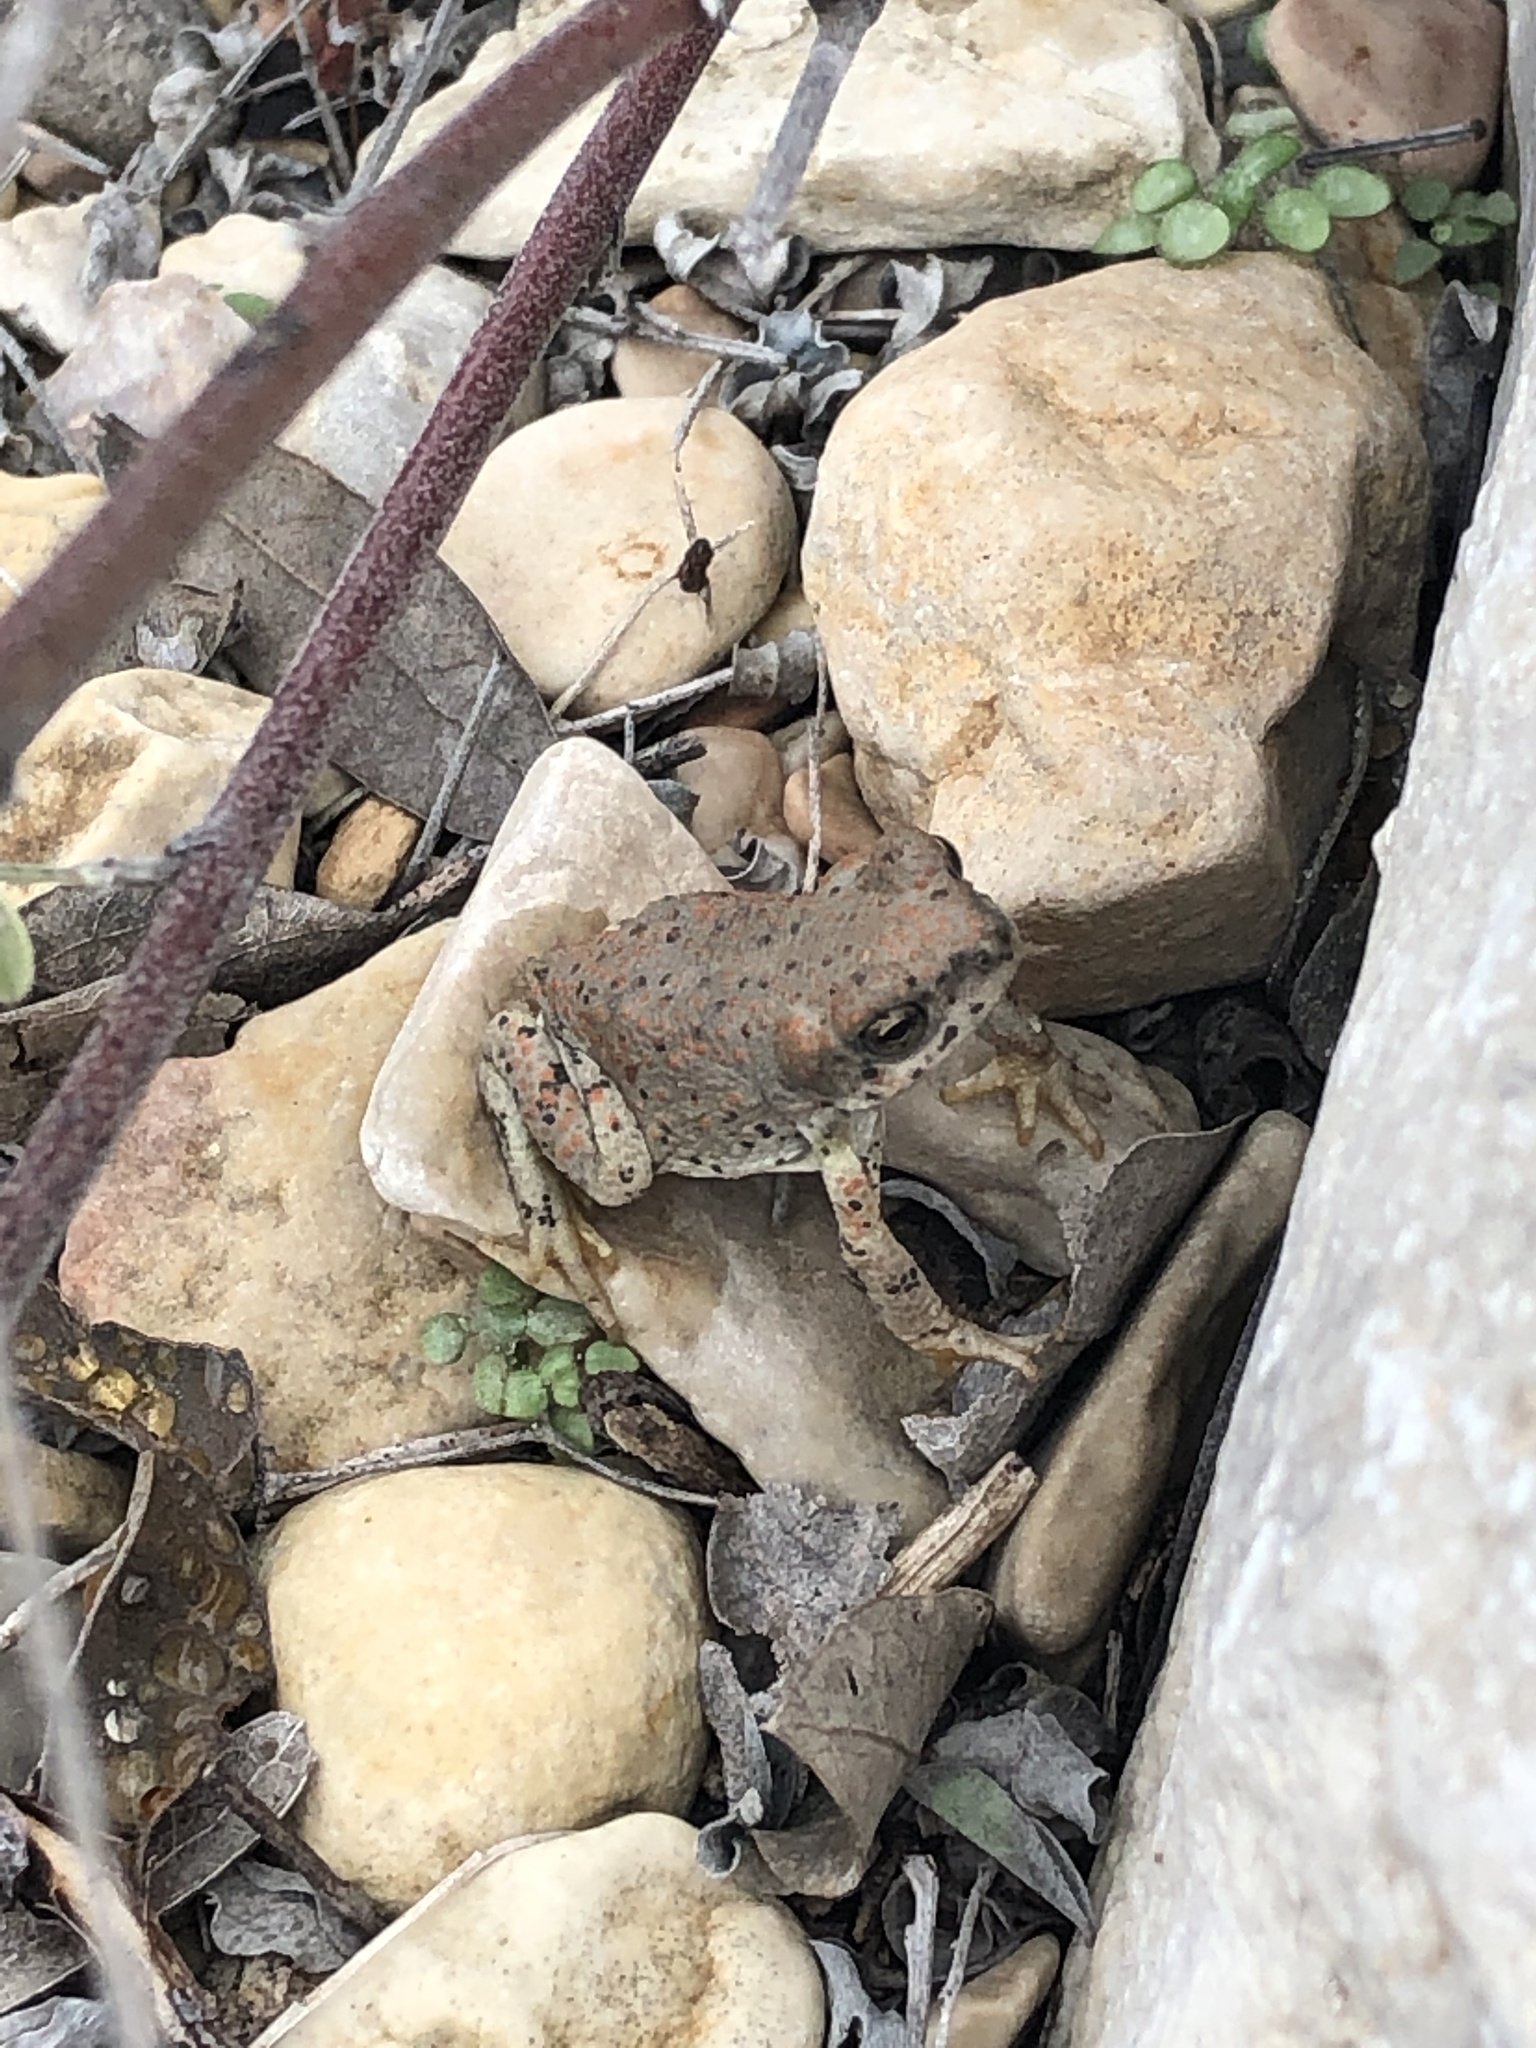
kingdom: Animalia
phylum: Chordata
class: Amphibia
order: Anura
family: Bufonidae
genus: Anaxyrus
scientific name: Anaxyrus punctatus
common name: Red-spotted toad
